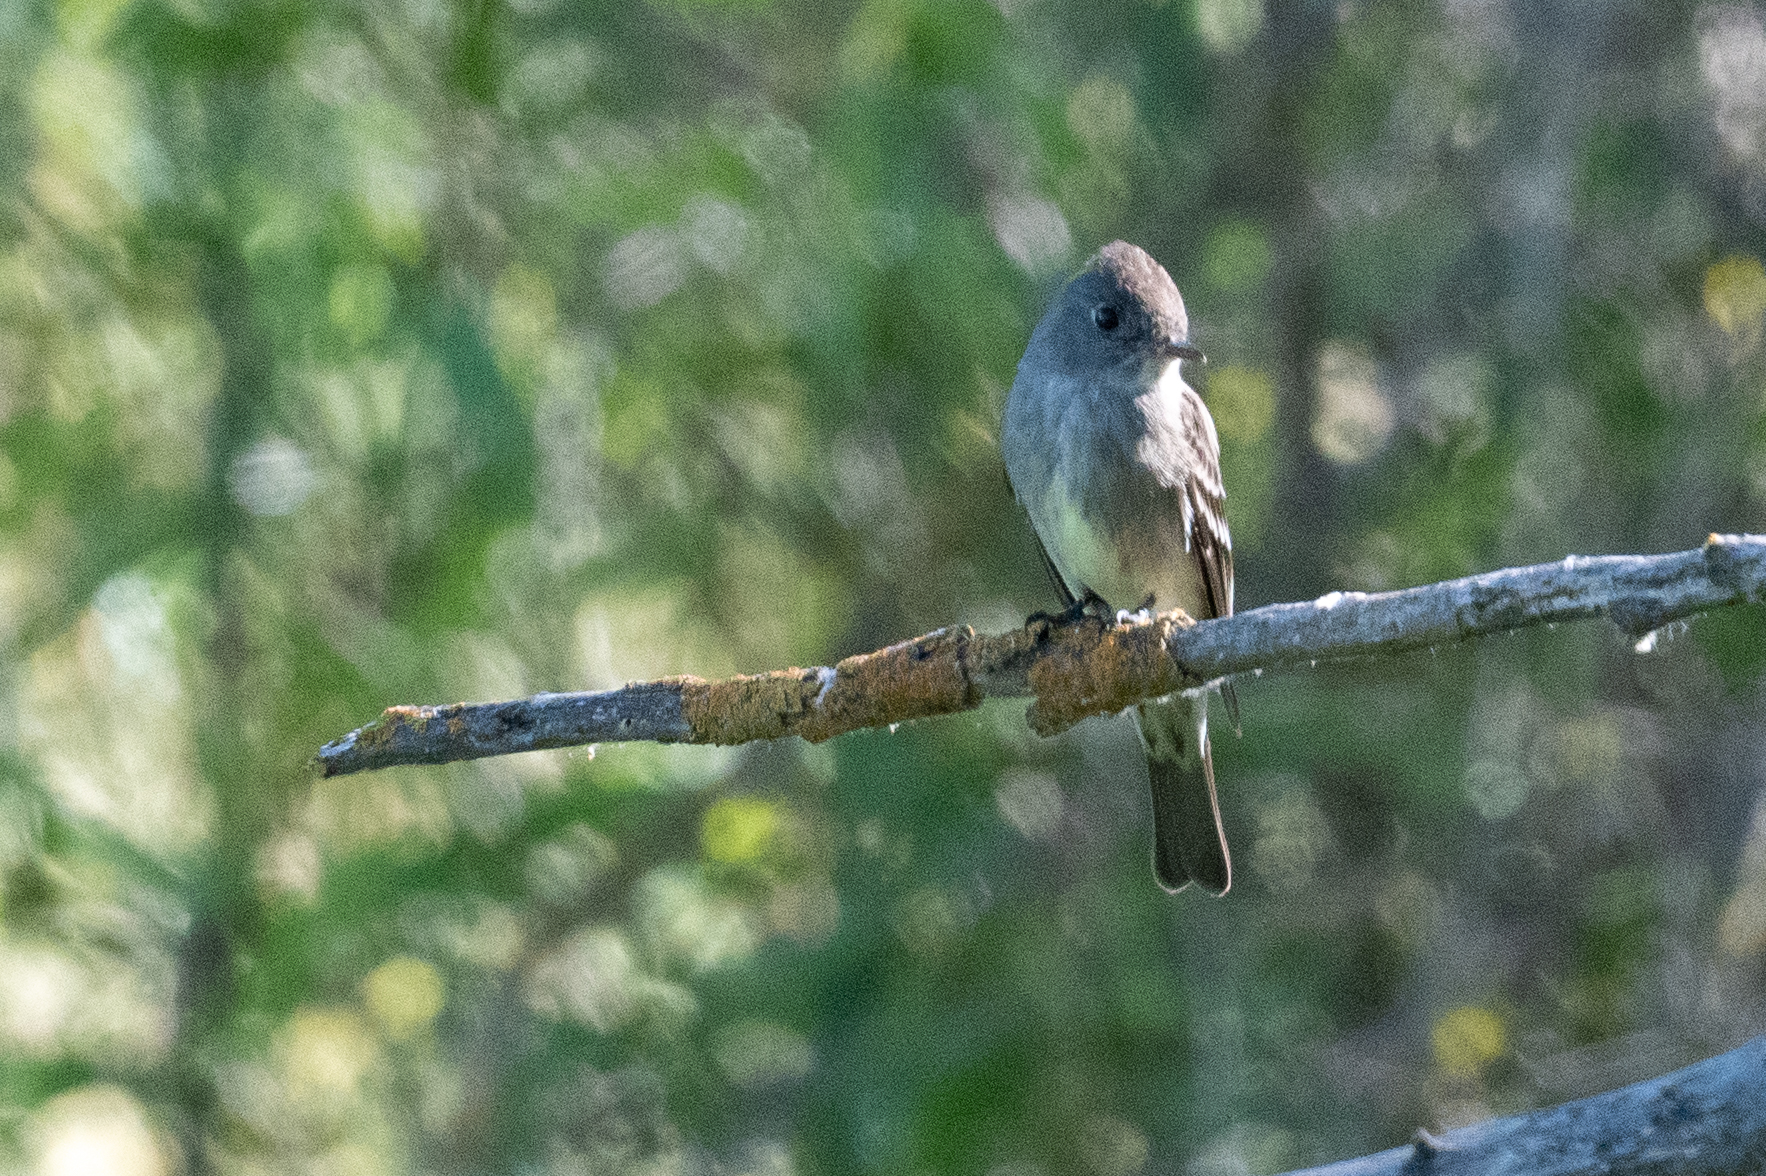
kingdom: Animalia
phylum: Chordata
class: Aves
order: Passeriformes
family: Tyrannidae
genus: Contopus
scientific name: Contopus sordidulus
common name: Western wood-pewee
